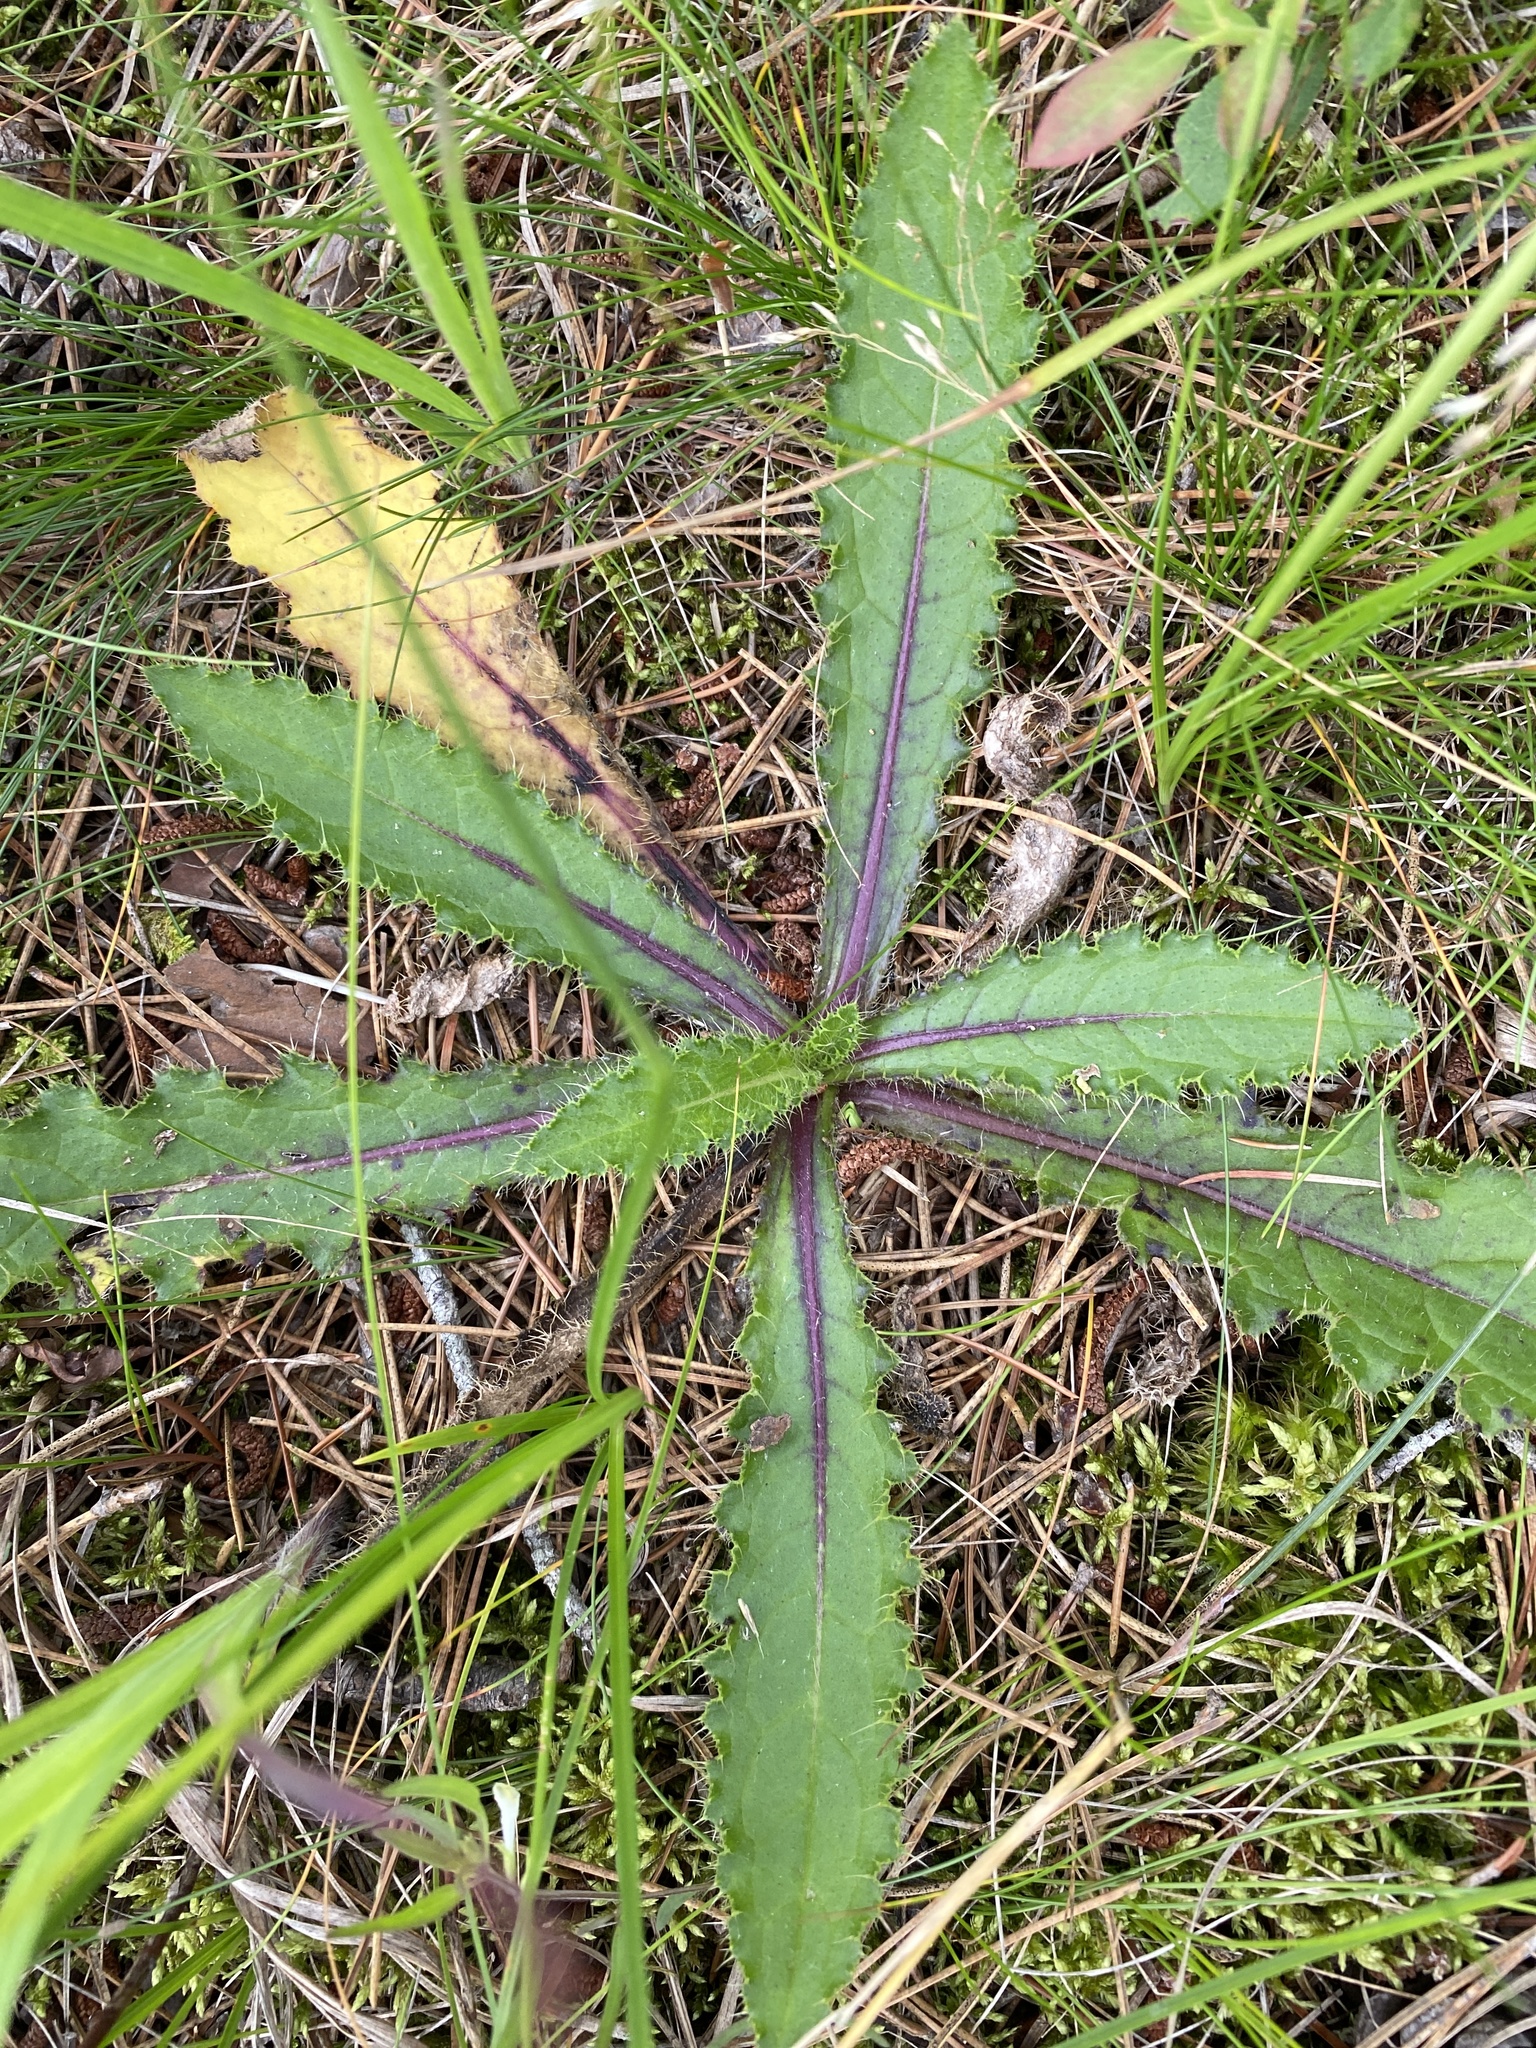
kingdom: Plantae
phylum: Tracheophyta
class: Magnoliopsida
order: Asterales
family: Asteraceae
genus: Cirsium
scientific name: Cirsium pumilum
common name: Pasture thistle
